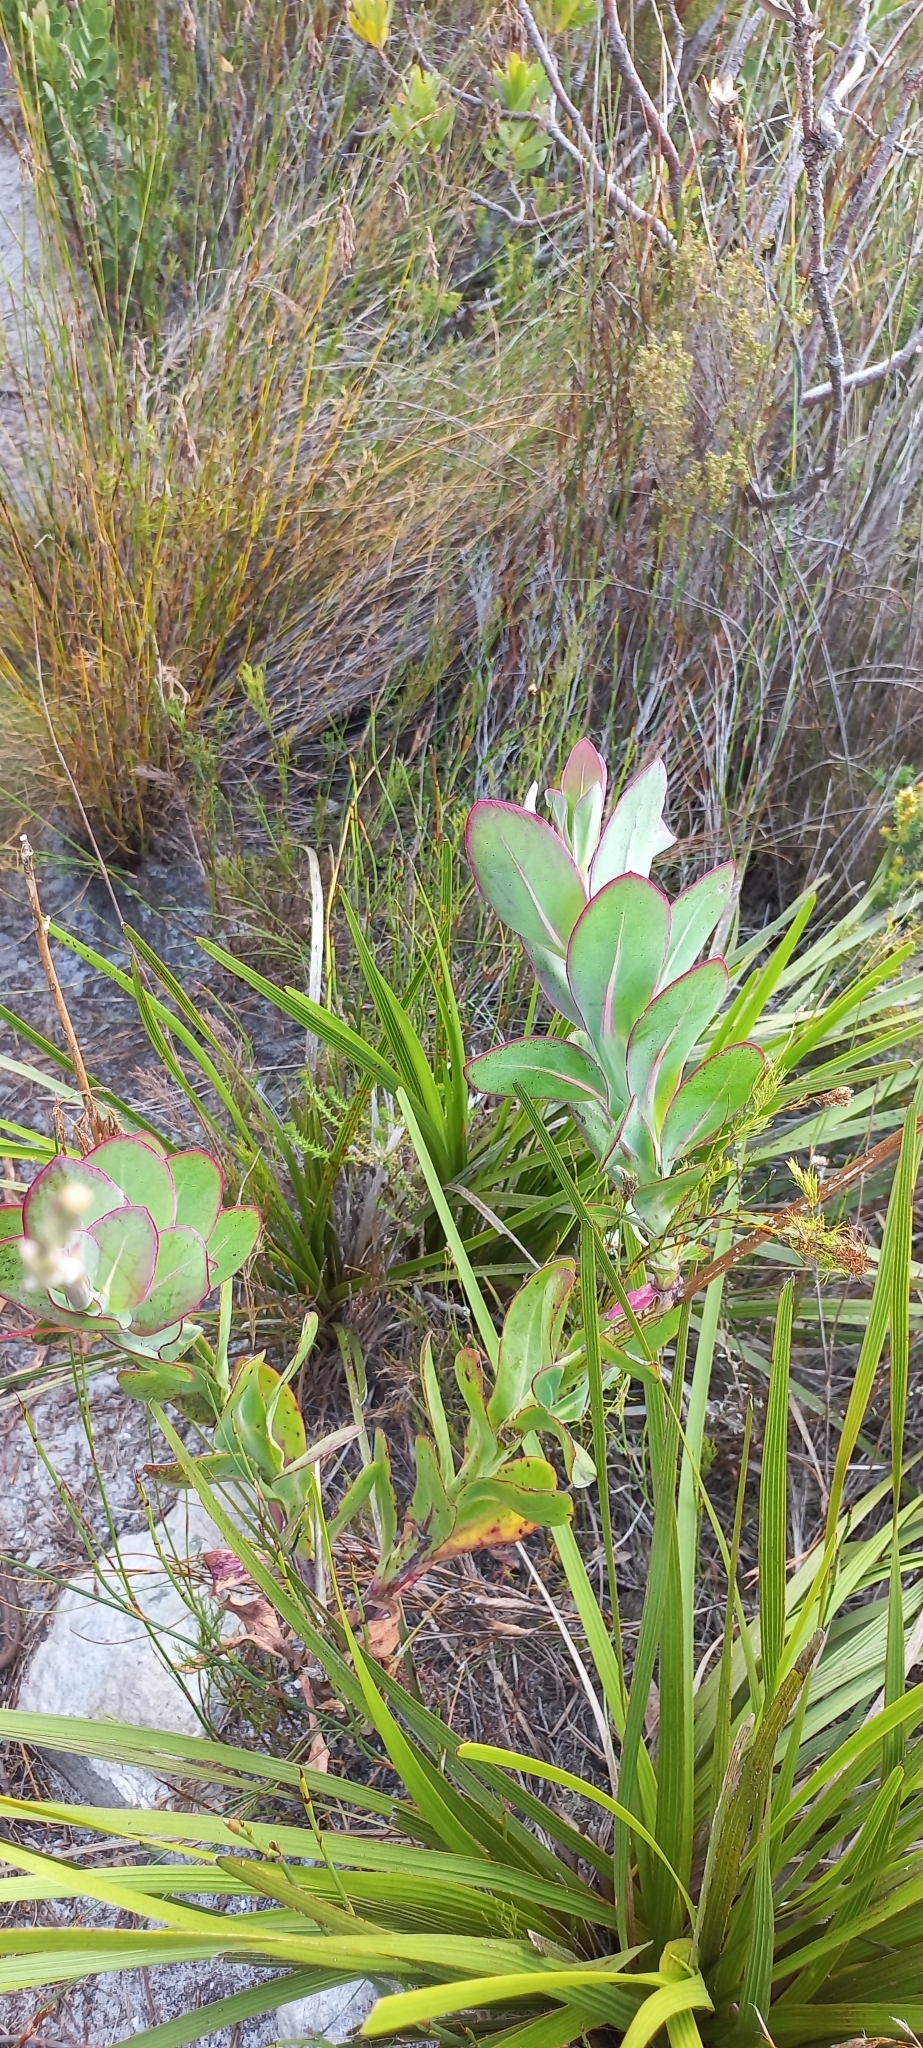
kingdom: Plantae
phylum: Tracheophyta
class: Magnoliopsida
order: Asterales
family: Asteraceae
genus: Othonna
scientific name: Othonna quinquedentata
